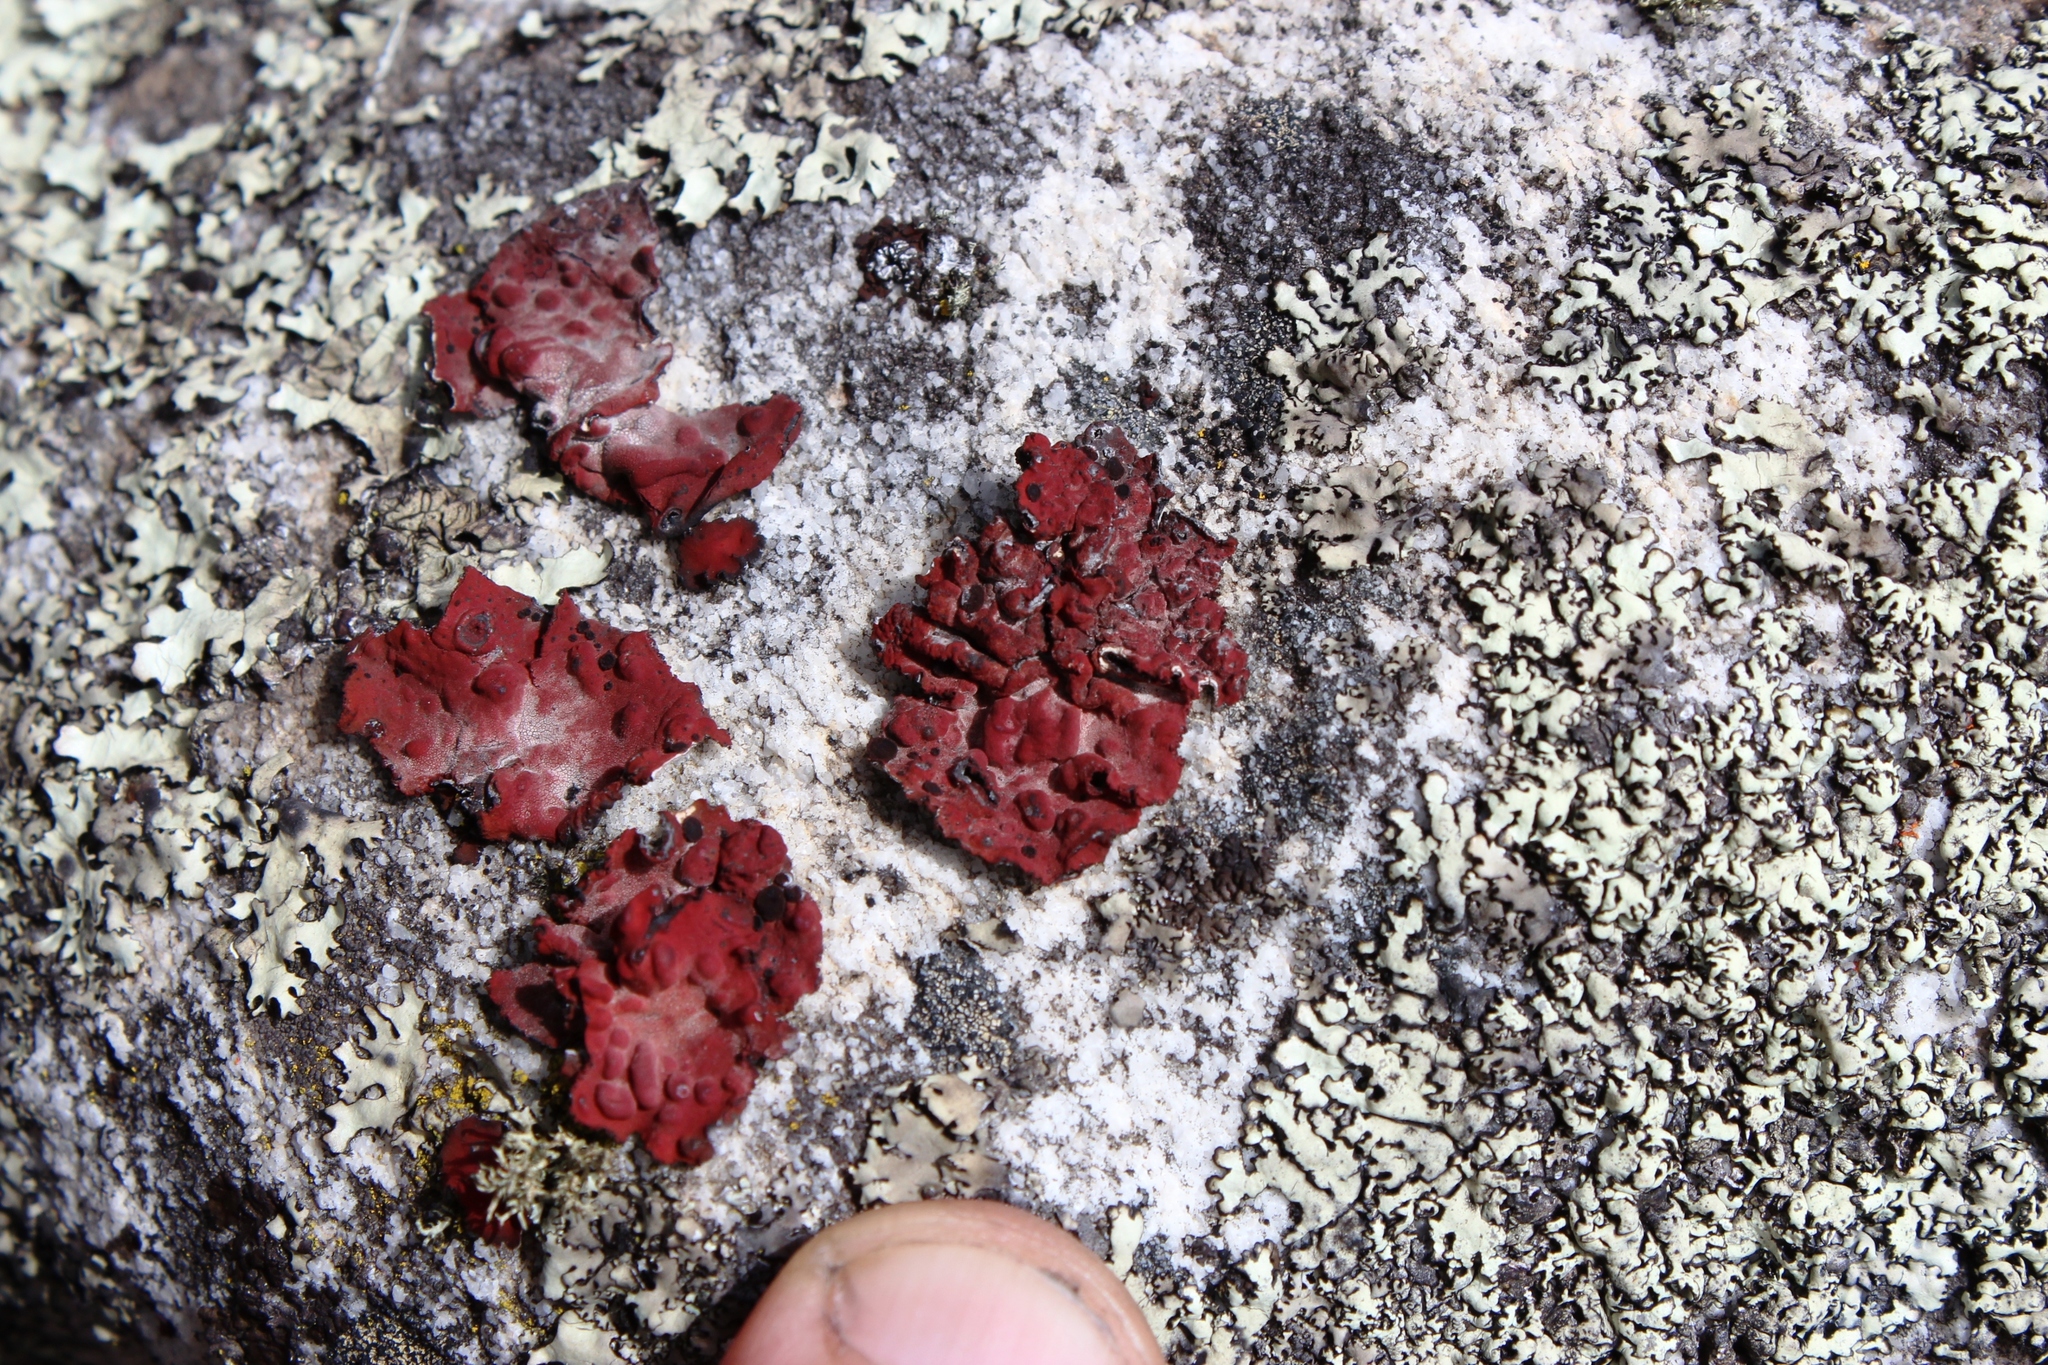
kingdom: Fungi
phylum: Ascomycota
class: Lecanoromycetes
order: Umbilicariales
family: Umbilicariaceae
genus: Lasallia
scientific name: Lasallia rubiginosa
